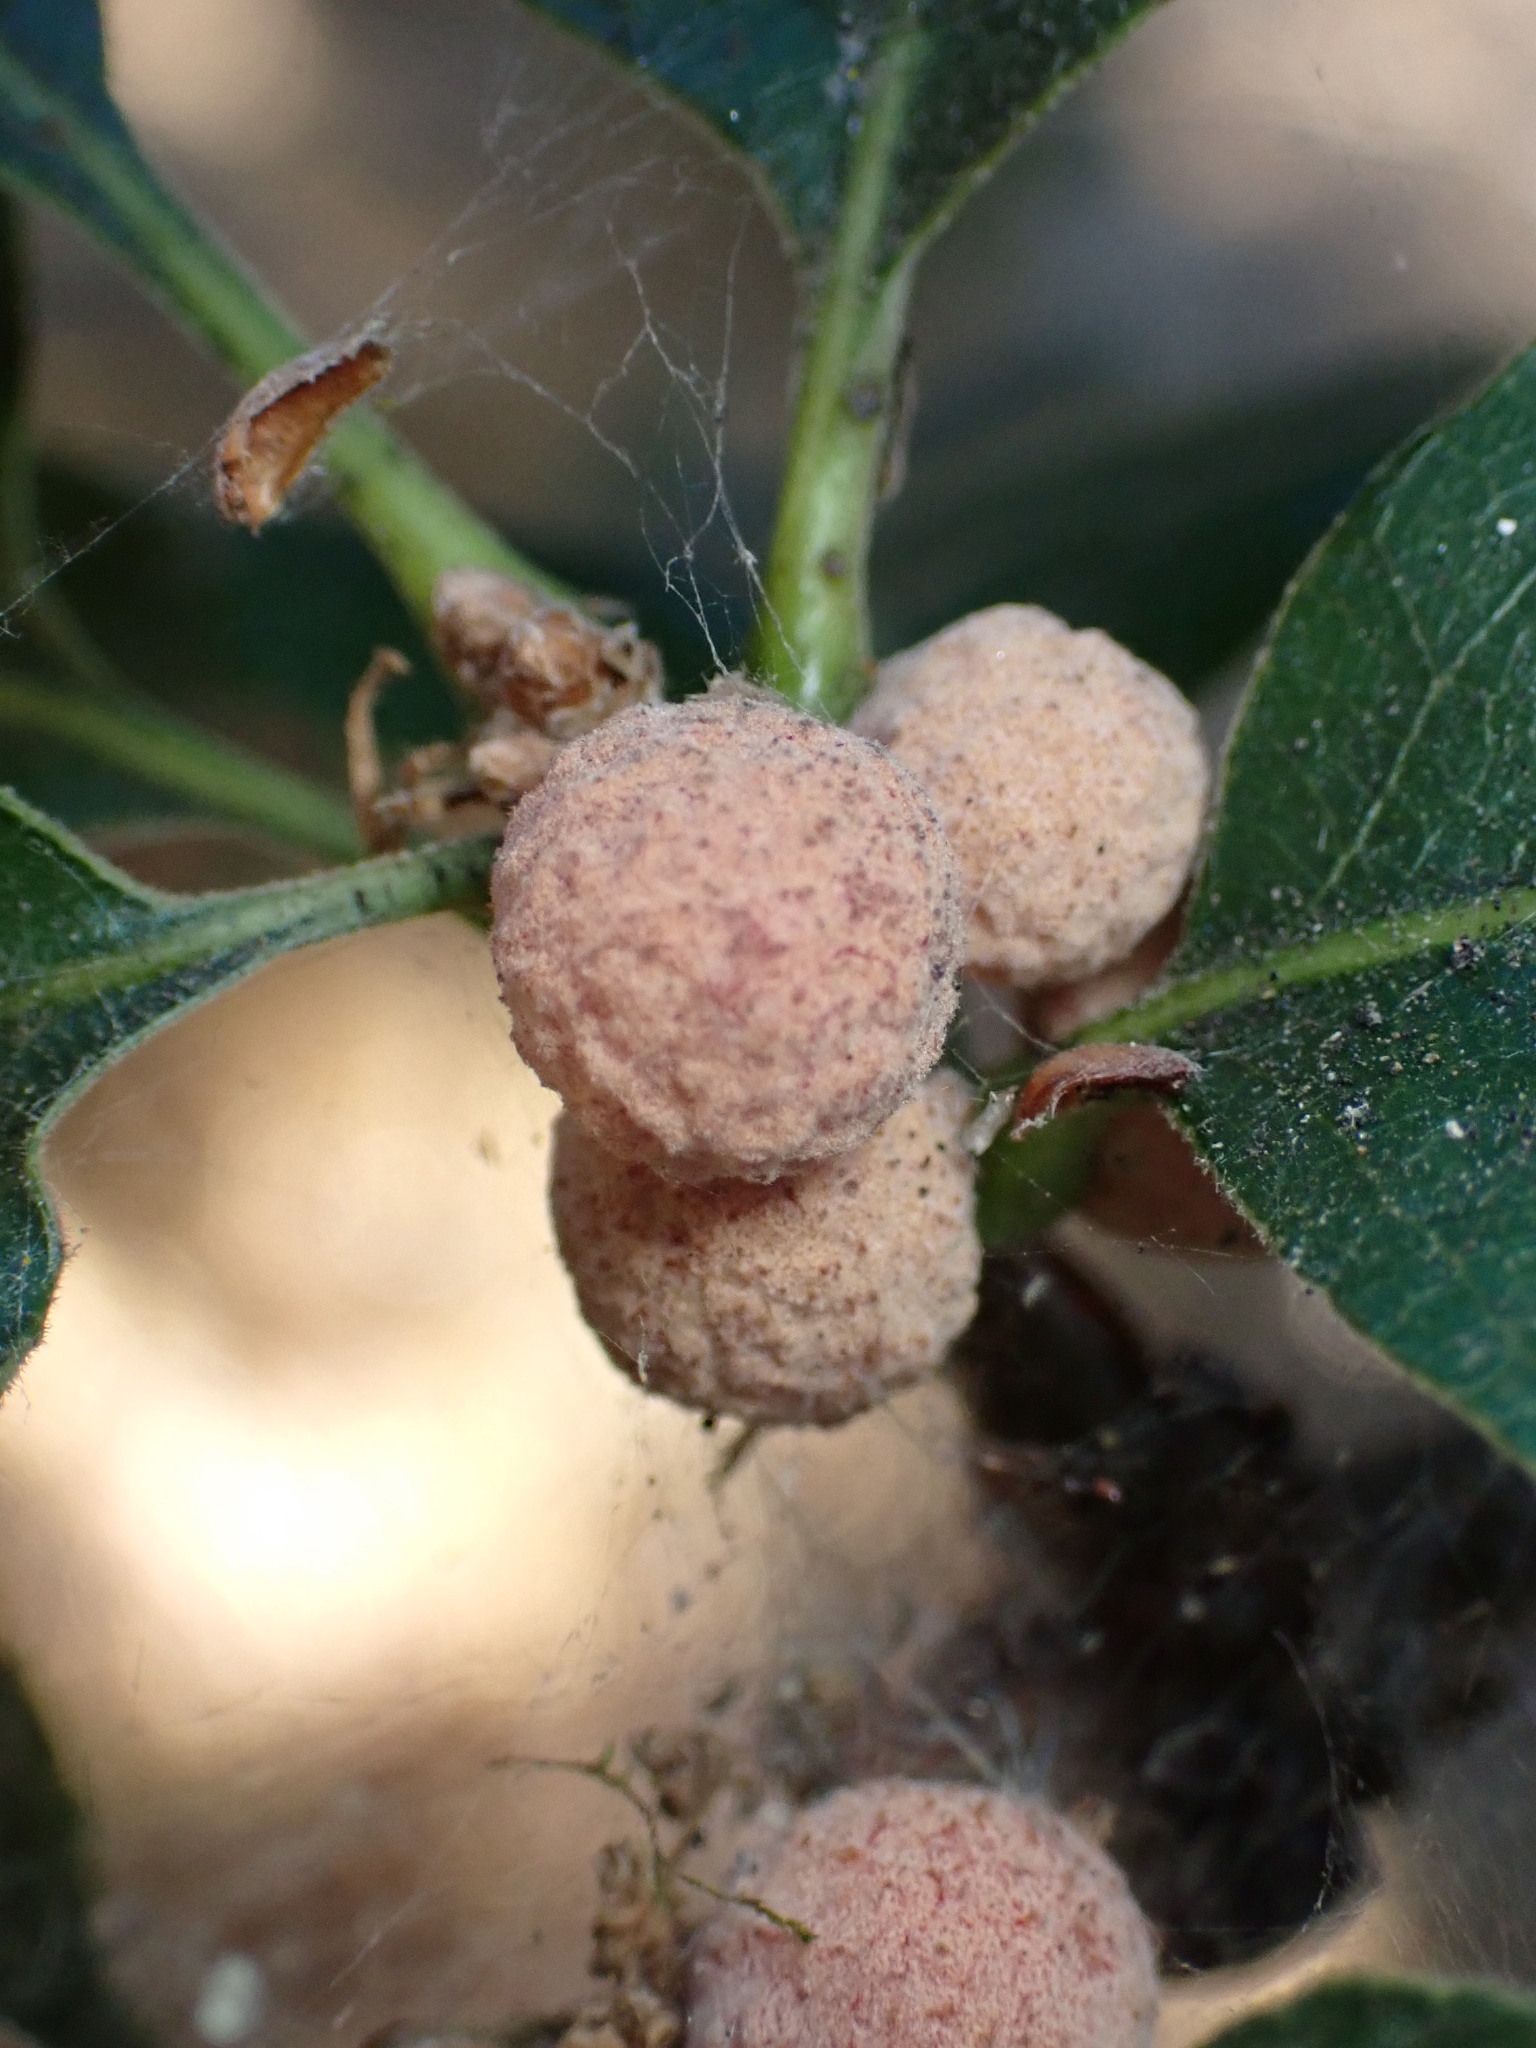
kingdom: Animalia
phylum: Arthropoda
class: Insecta
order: Hymenoptera
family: Cynipidae
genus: Cynips
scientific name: Cynips conspicua
